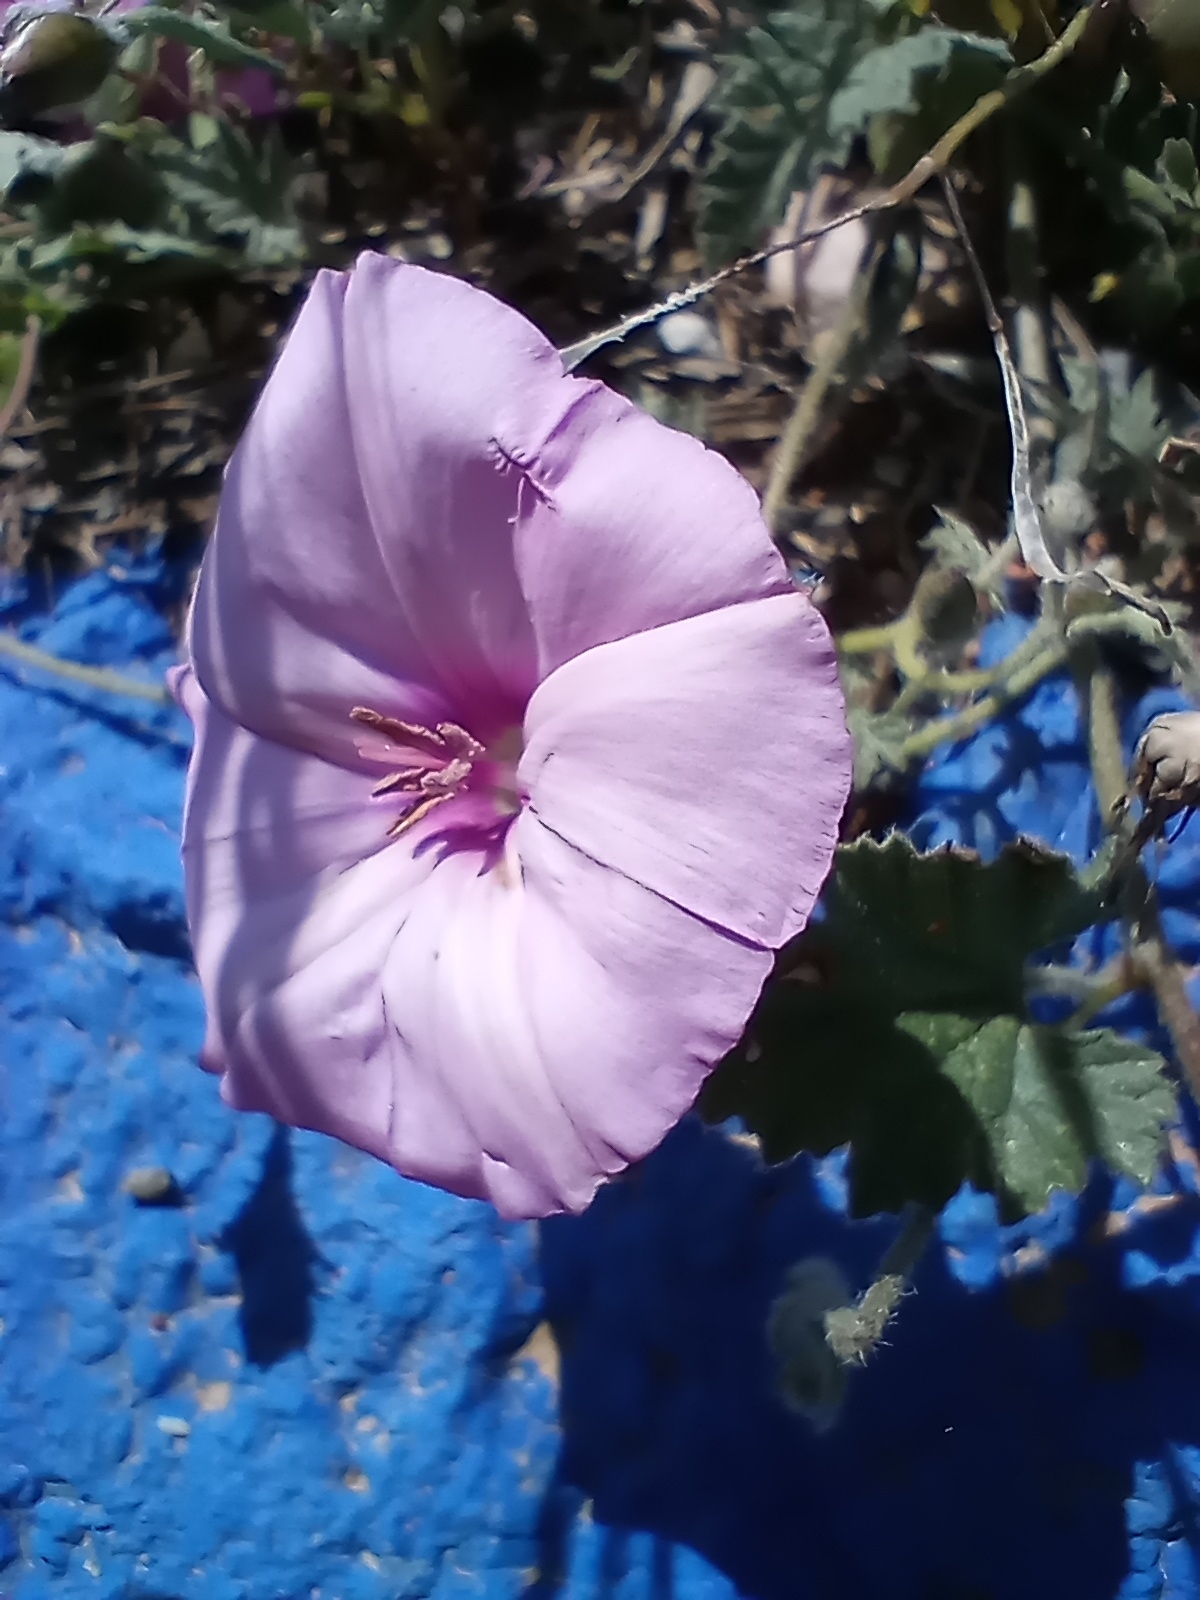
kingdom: Plantae
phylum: Tracheophyta
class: Magnoliopsida
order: Solanales
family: Convolvulaceae
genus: Convolvulus
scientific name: Convolvulus althaeoides
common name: Mallow bindweed
